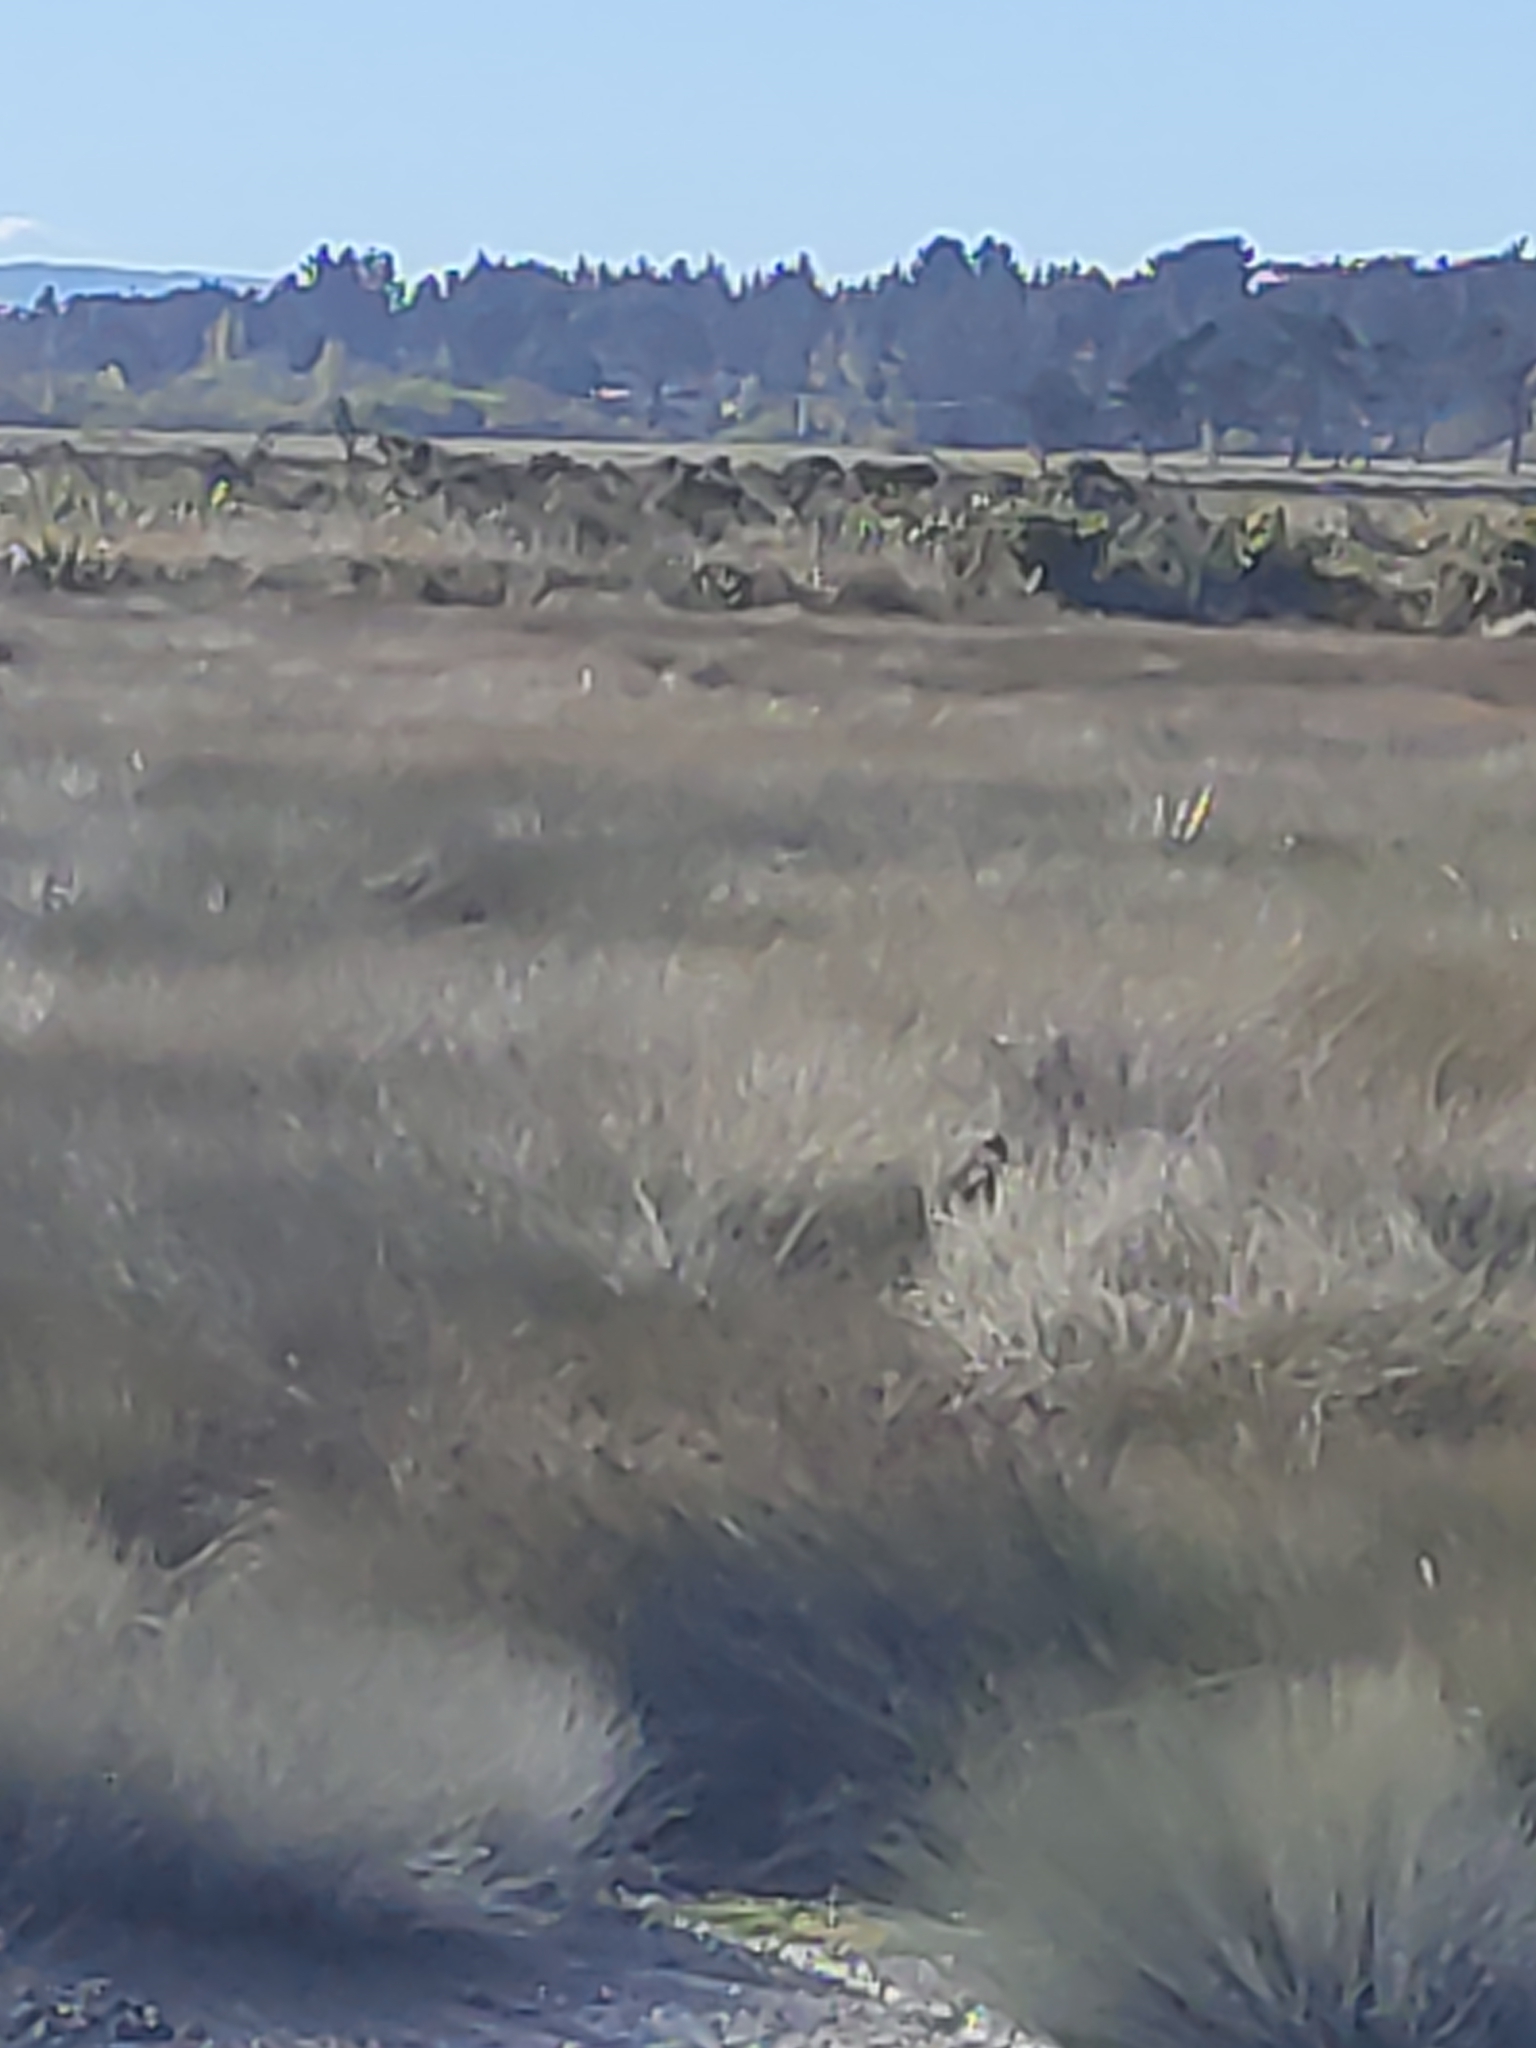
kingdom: Plantae
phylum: Tracheophyta
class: Liliopsida
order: Poales
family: Restionaceae
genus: Apodasmia
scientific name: Apodasmia similis
